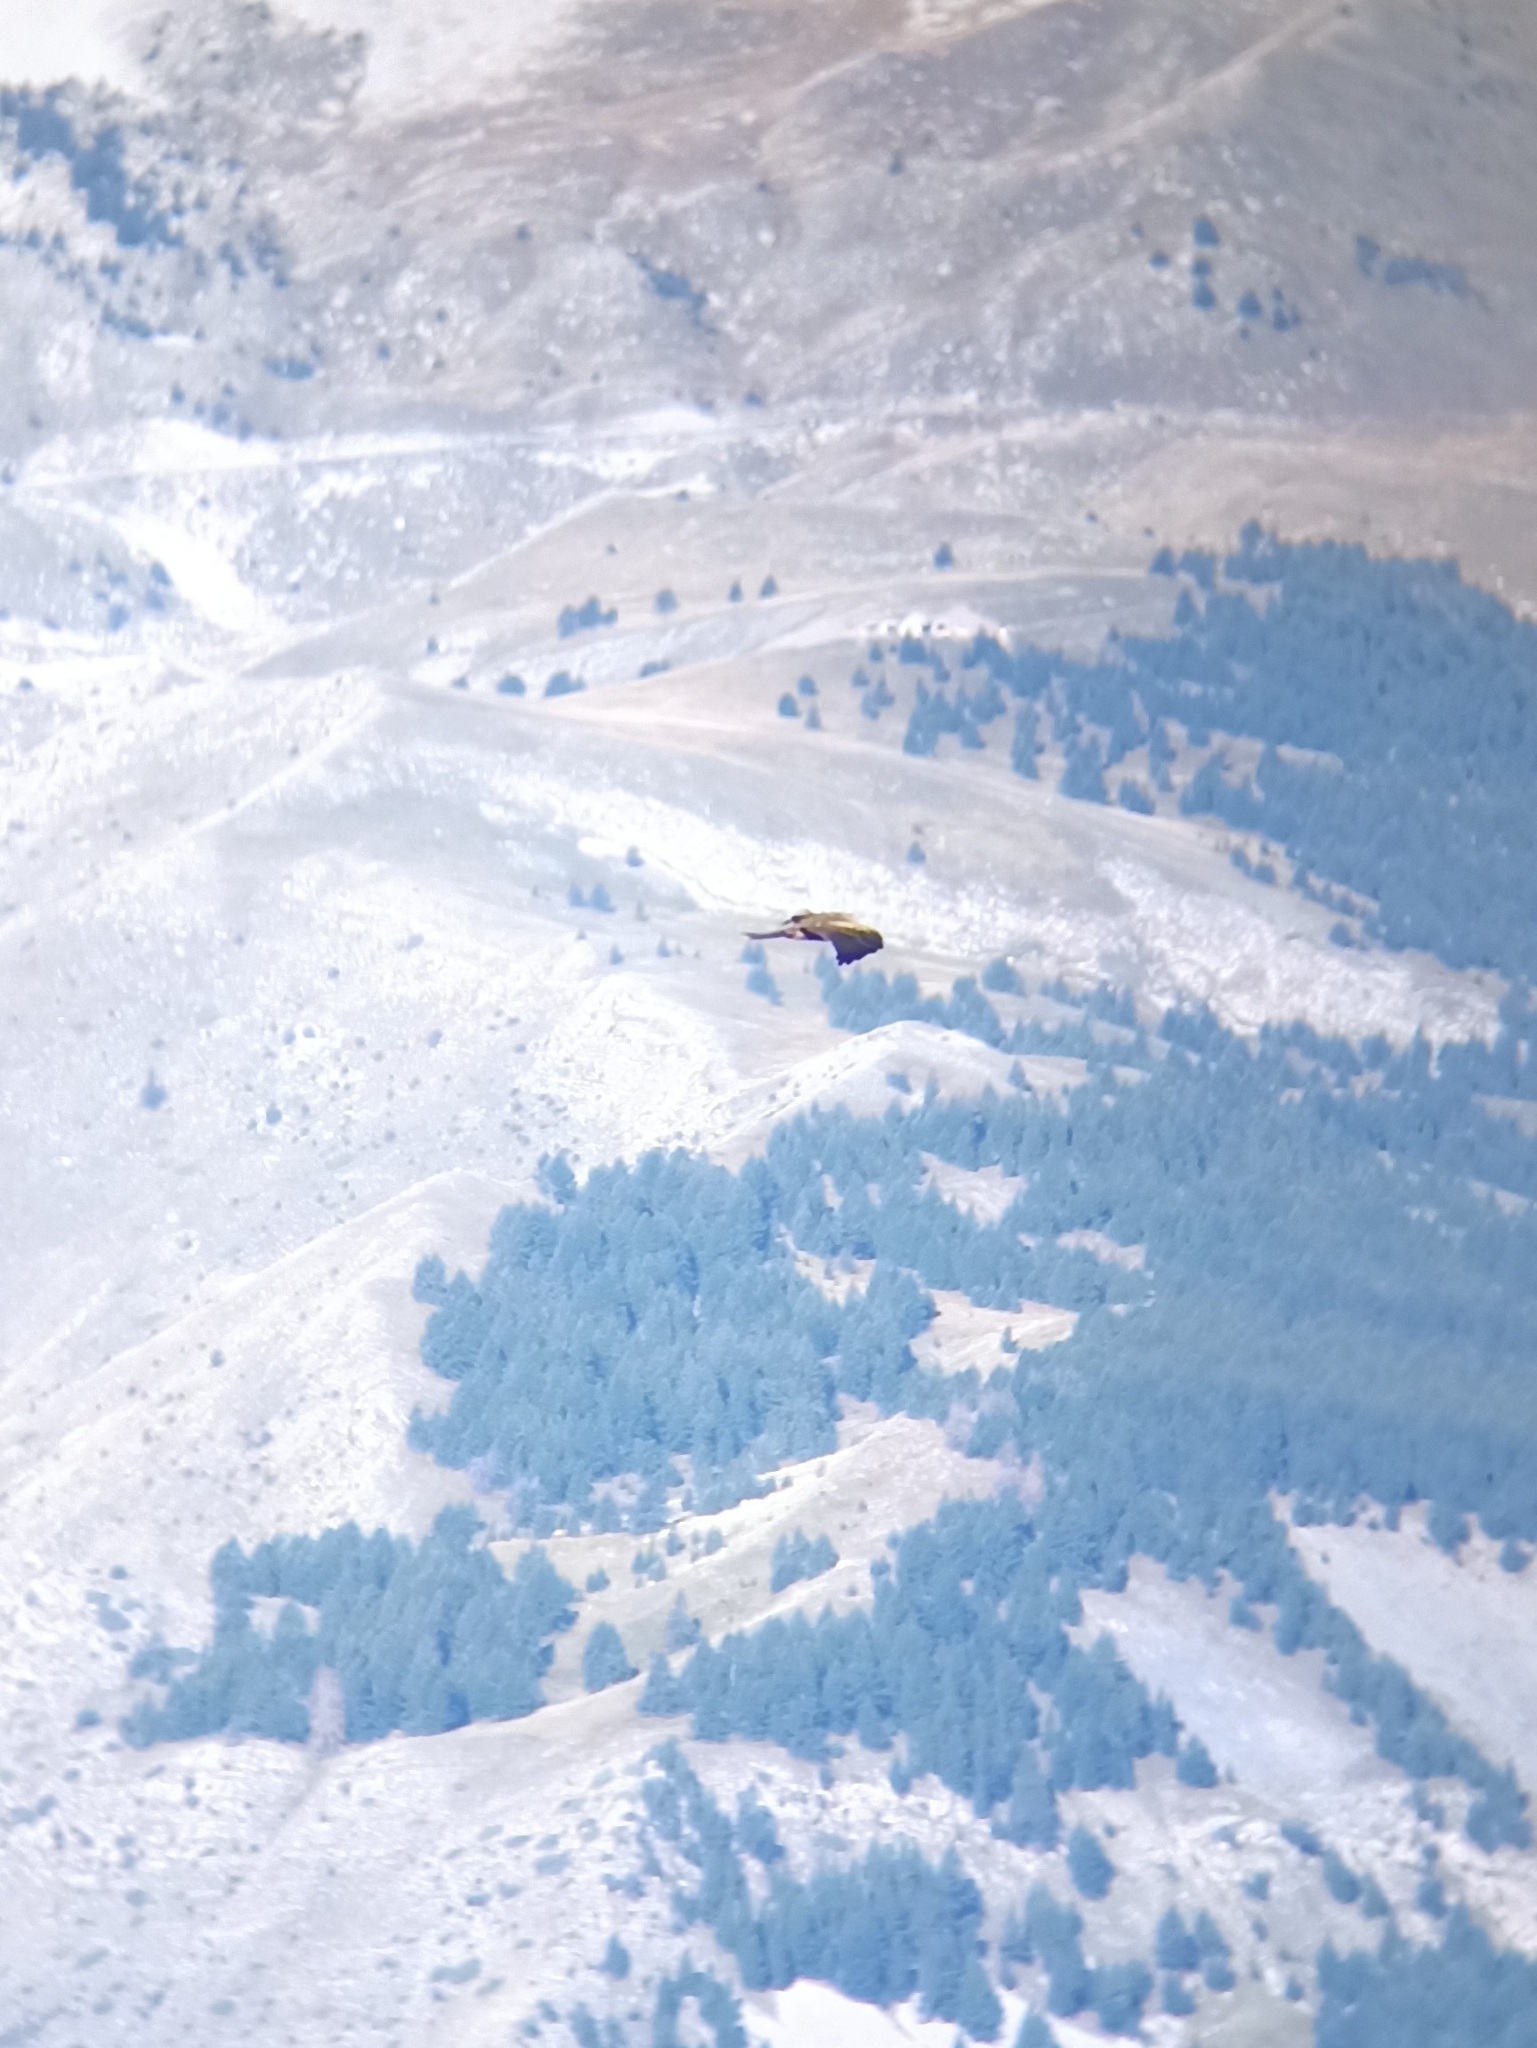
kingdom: Animalia
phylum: Chordata
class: Aves
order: Accipitriformes
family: Accipitridae
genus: Milvus
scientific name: Milvus migrans
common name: Black kite
